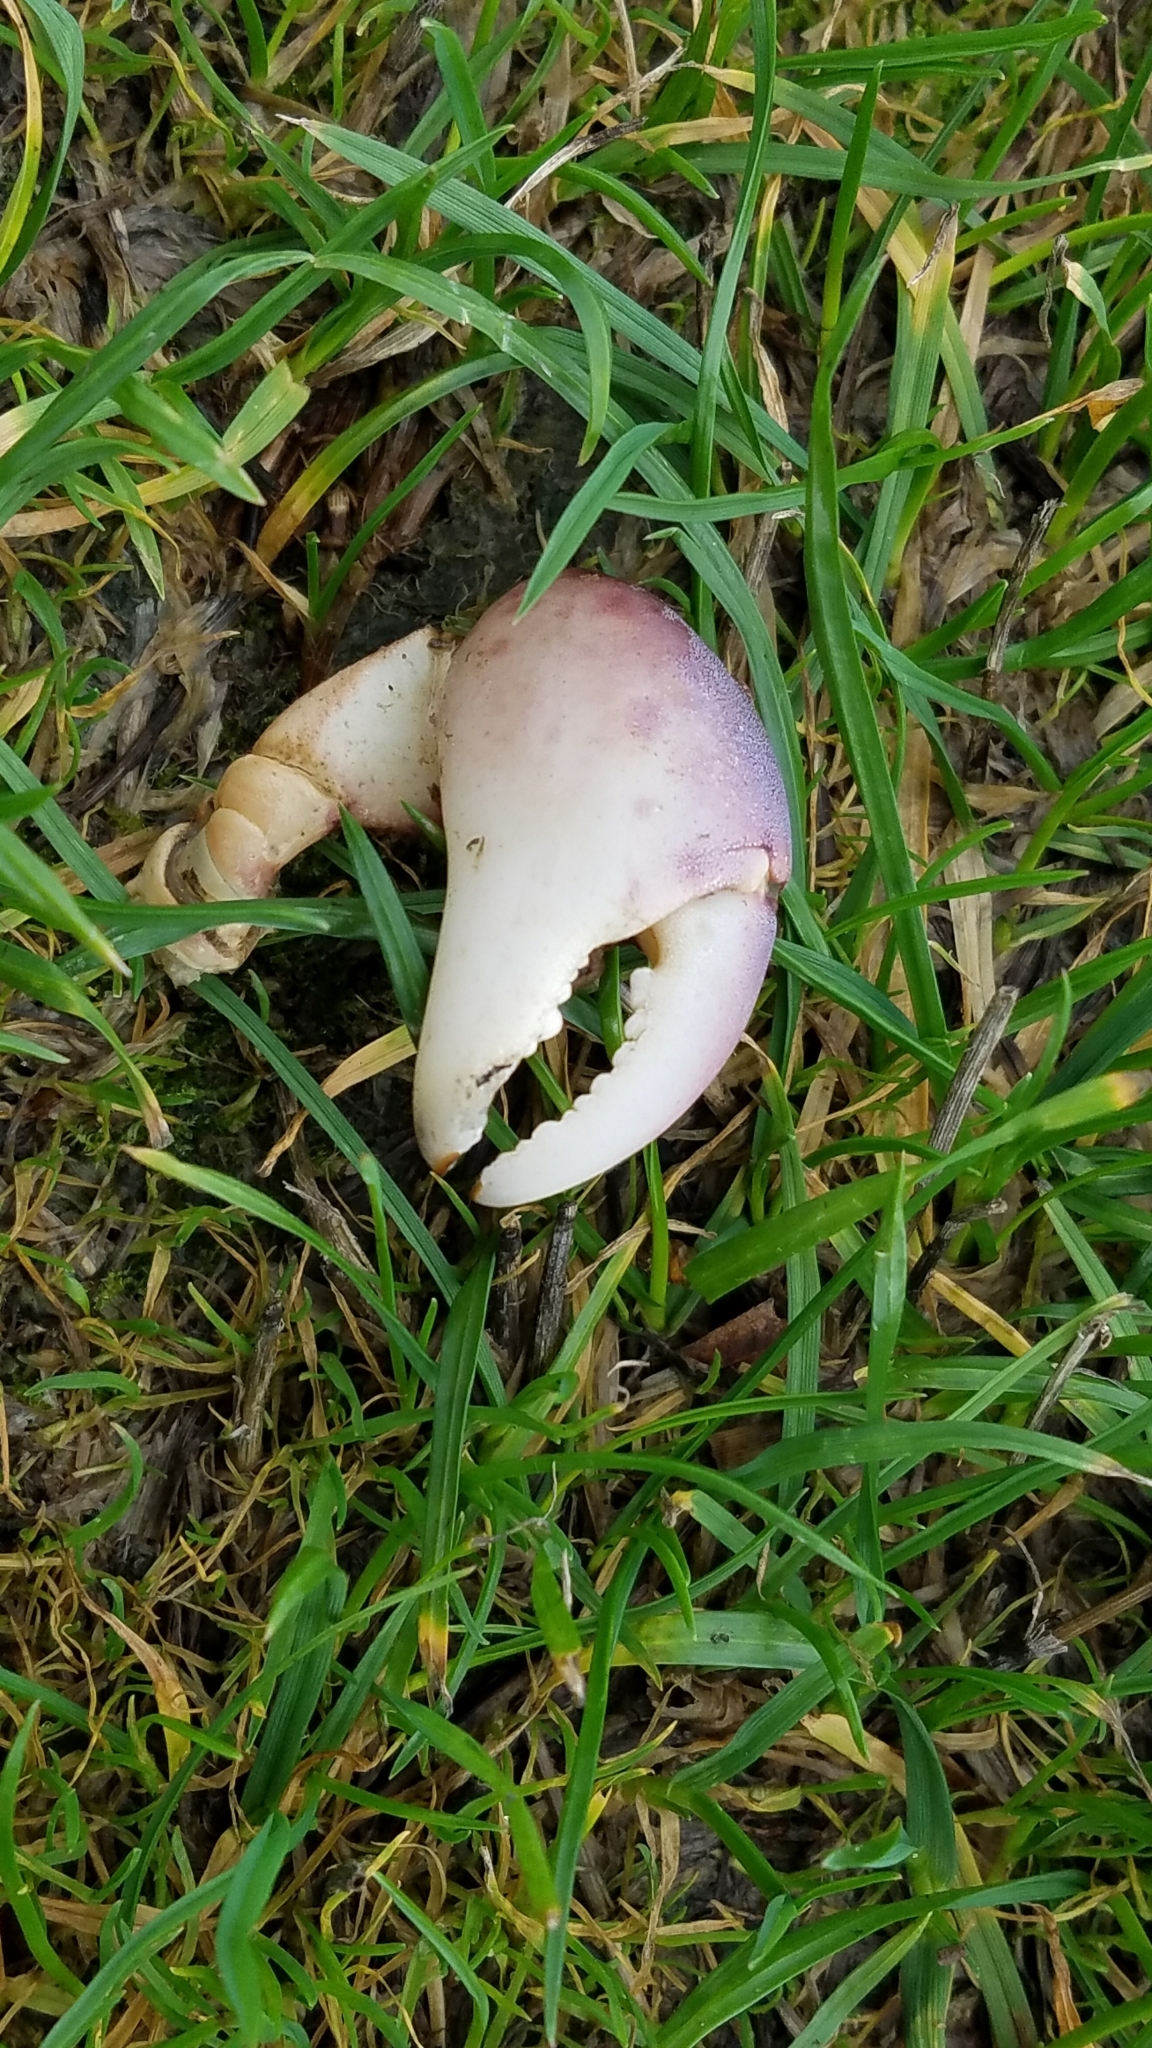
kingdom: Animalia
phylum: Arthropoda
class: Malacostraca
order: Decapoda
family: Varunidae
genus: Hemigrapsus
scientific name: Hemigrapsus nudus
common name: Purple shore crab
